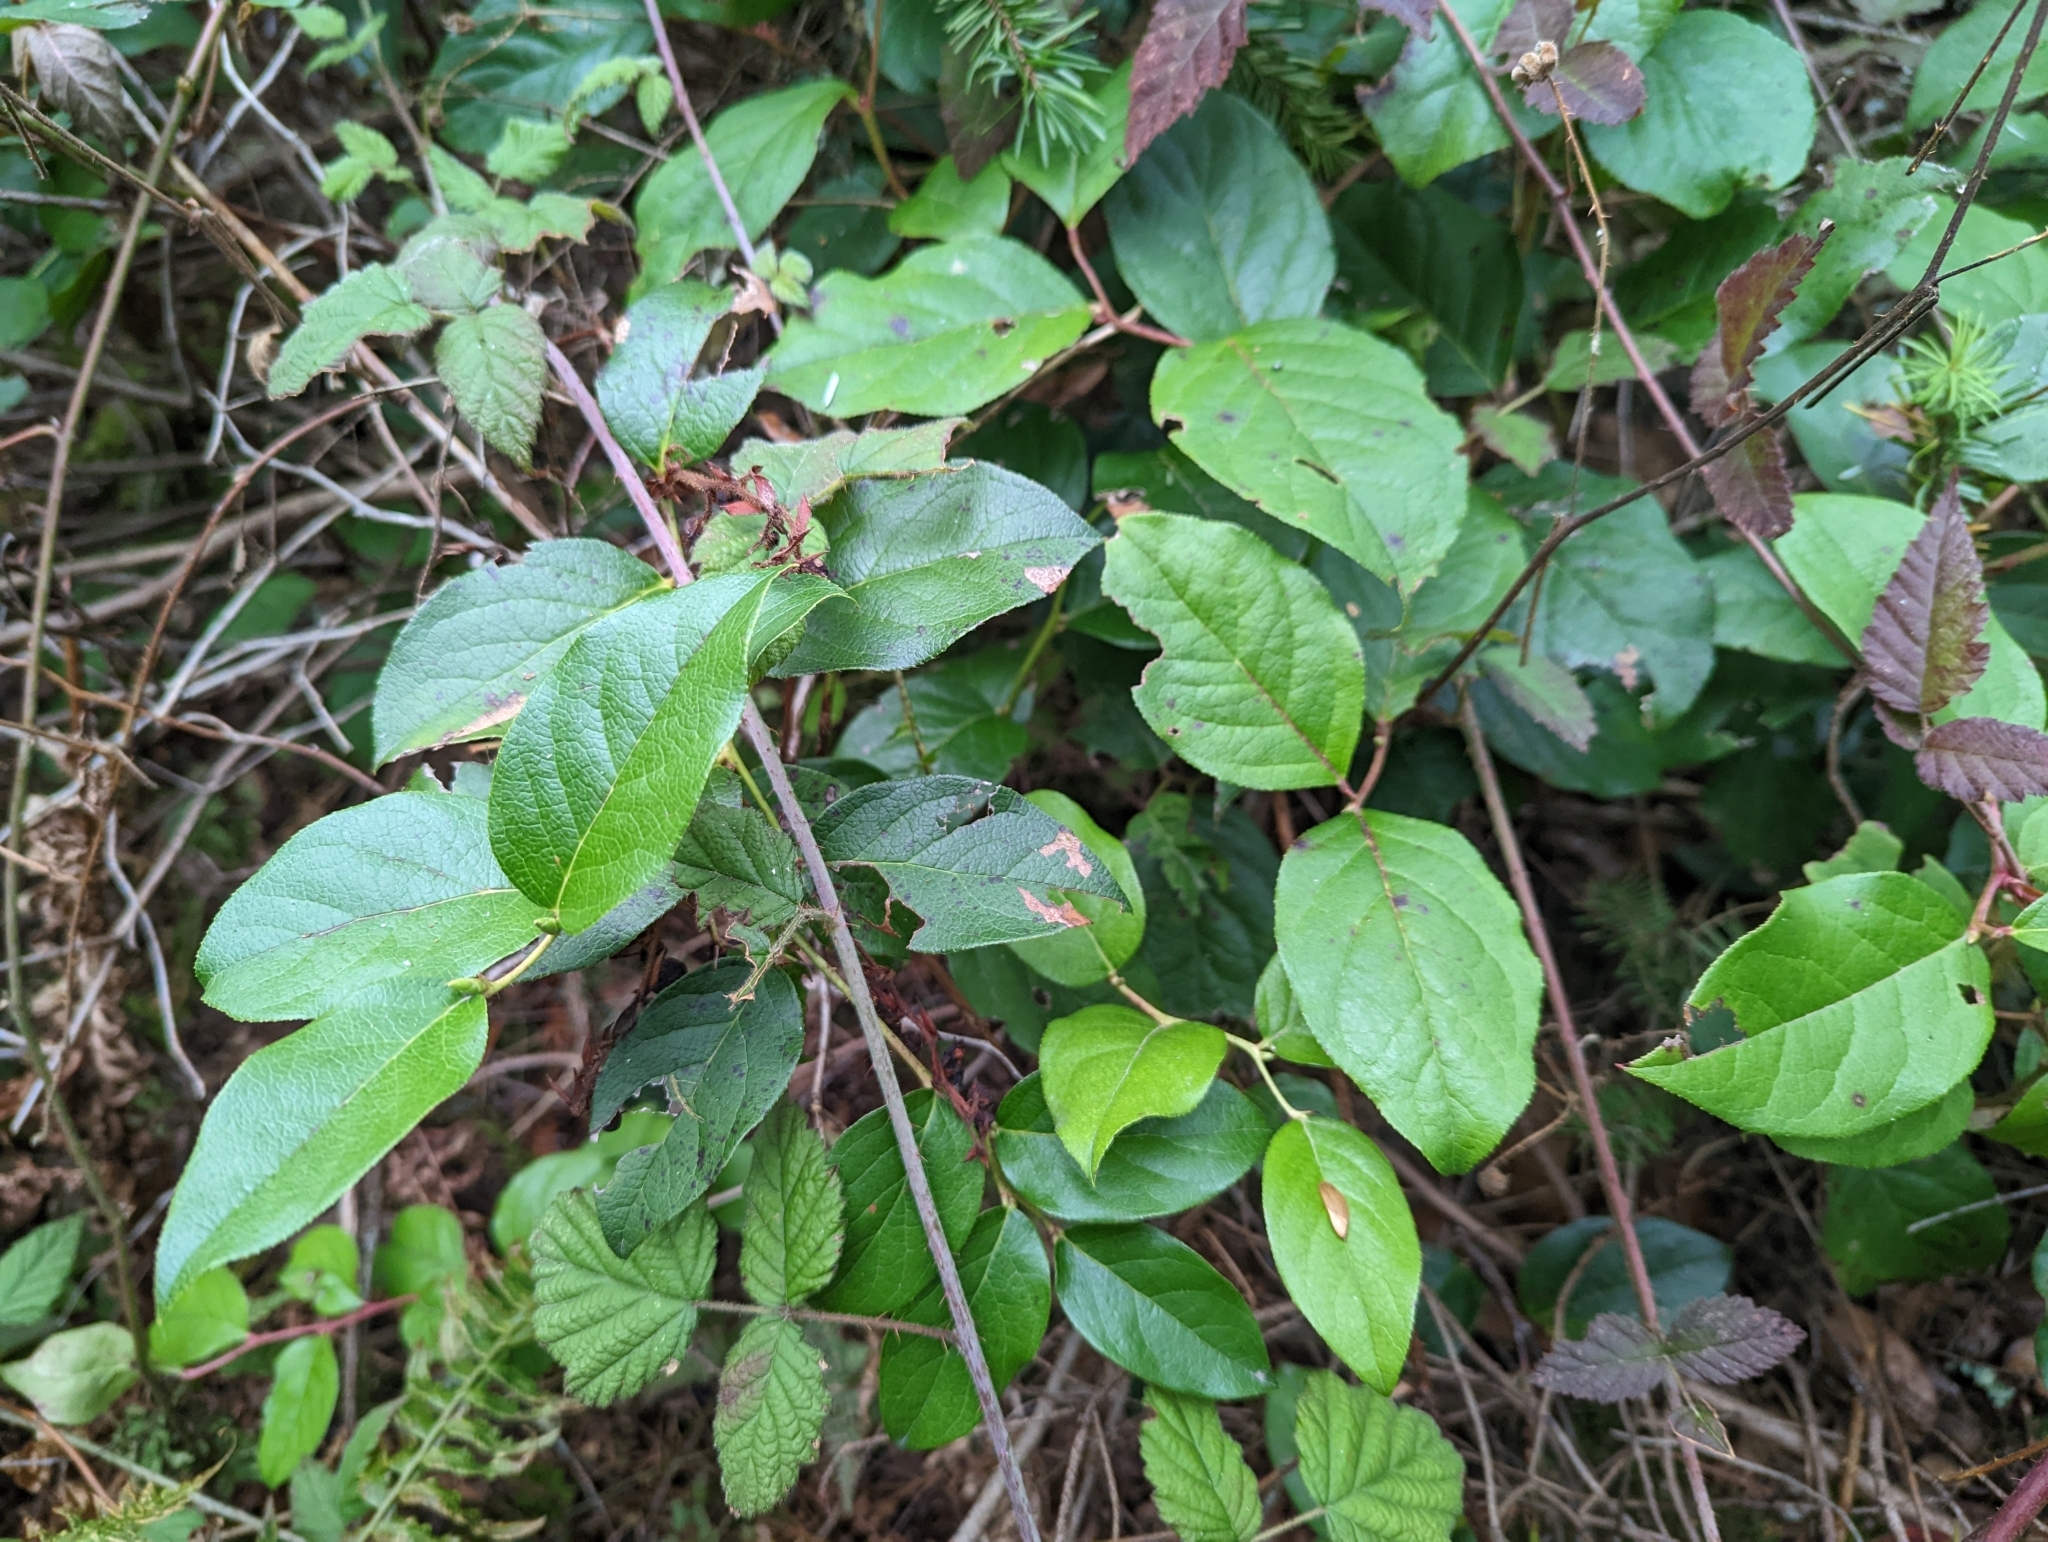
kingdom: Plantae
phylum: Tracheophyta
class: Magnoliopsida
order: Ericales
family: Ericaceae
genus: Gaultheria
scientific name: Gaultheria shallon
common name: Shallon
